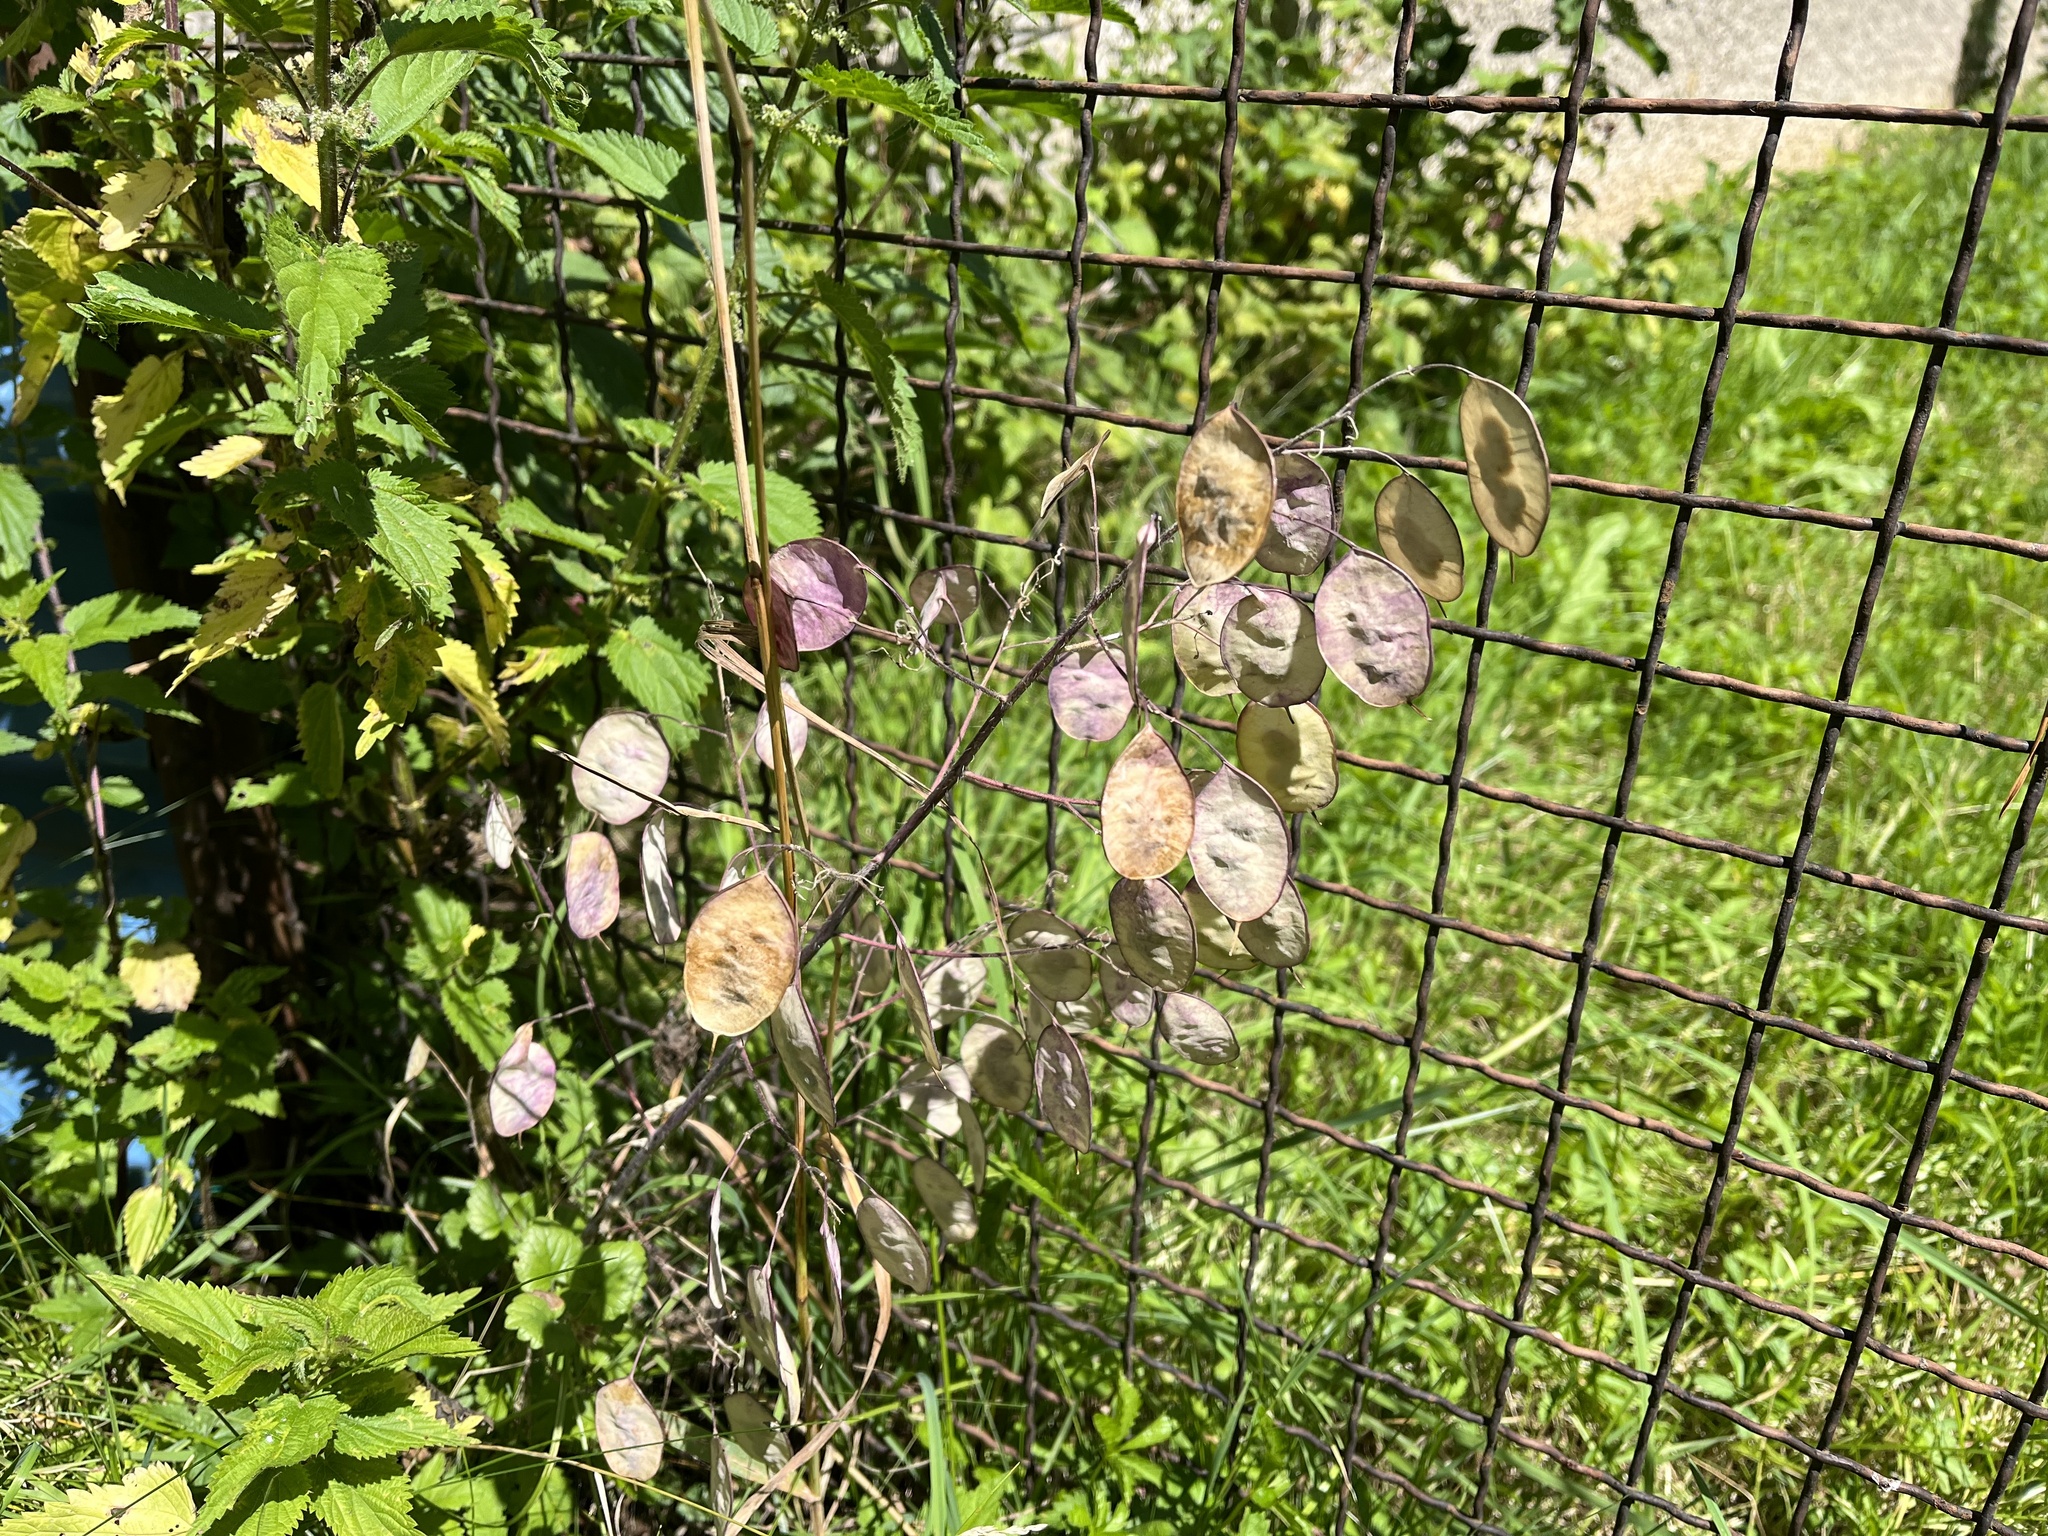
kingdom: Plantae
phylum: Tracheophyta
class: Magnoliopsida
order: Brassicales
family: Brassicaceae
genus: Lunaria
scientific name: Lunaria annua
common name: Honesty
